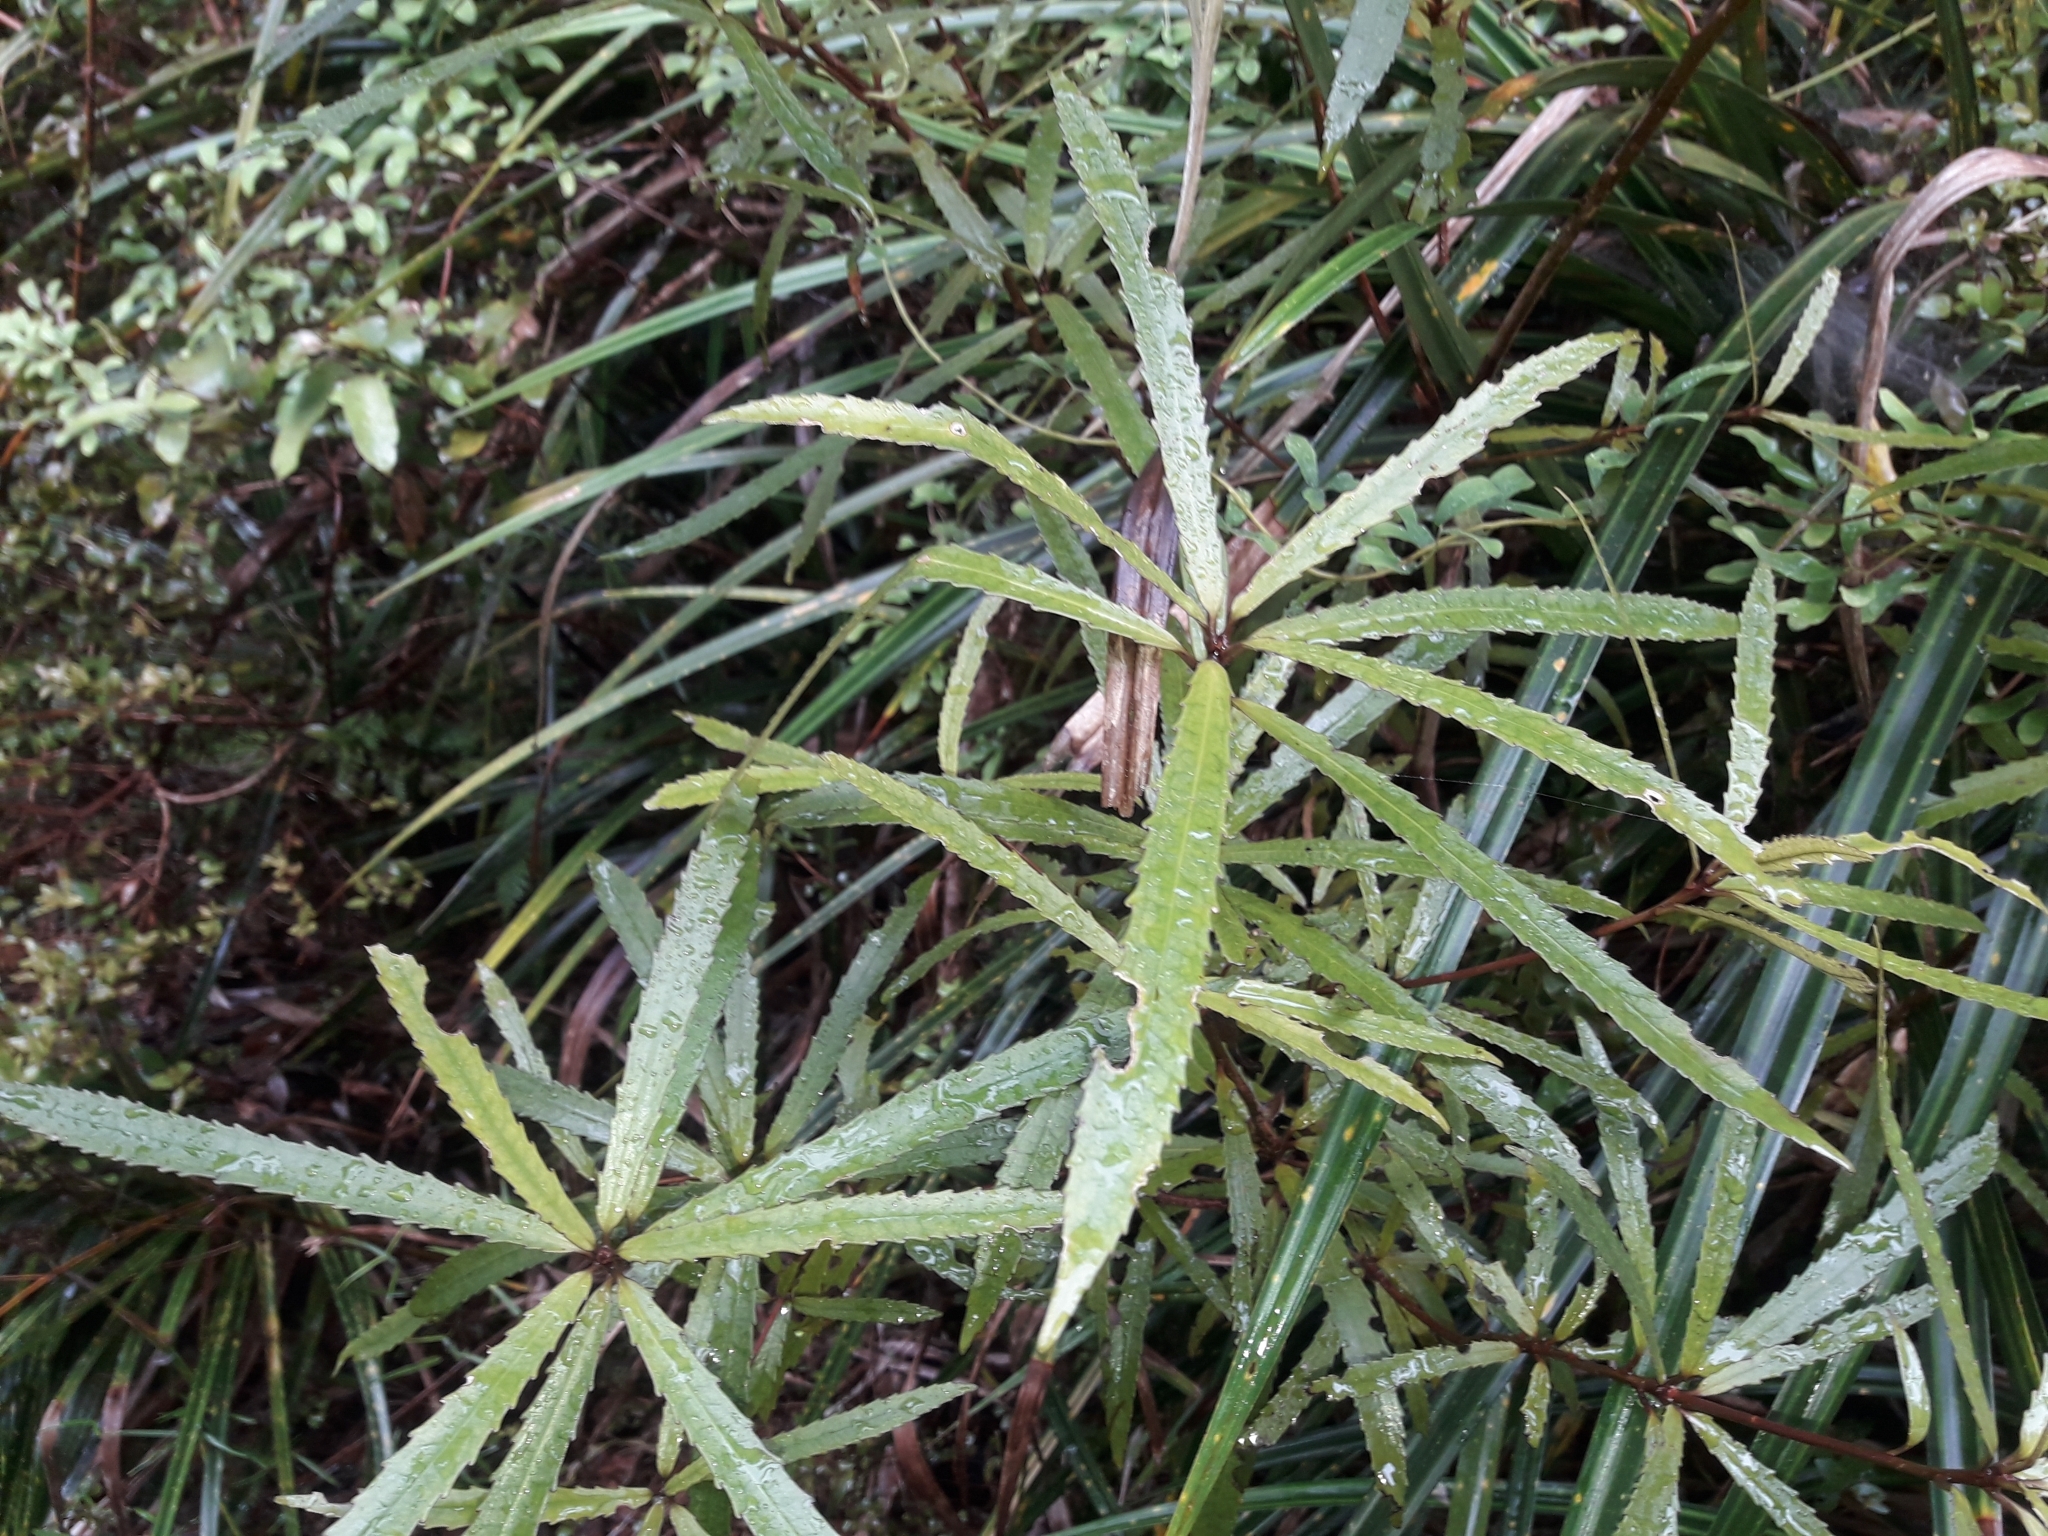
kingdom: Plantae
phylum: Tracheophyta
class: Magnoliopsida
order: Crossosomatales
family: Ixerbaceae
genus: Ixerba
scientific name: Ixerba brexioides
